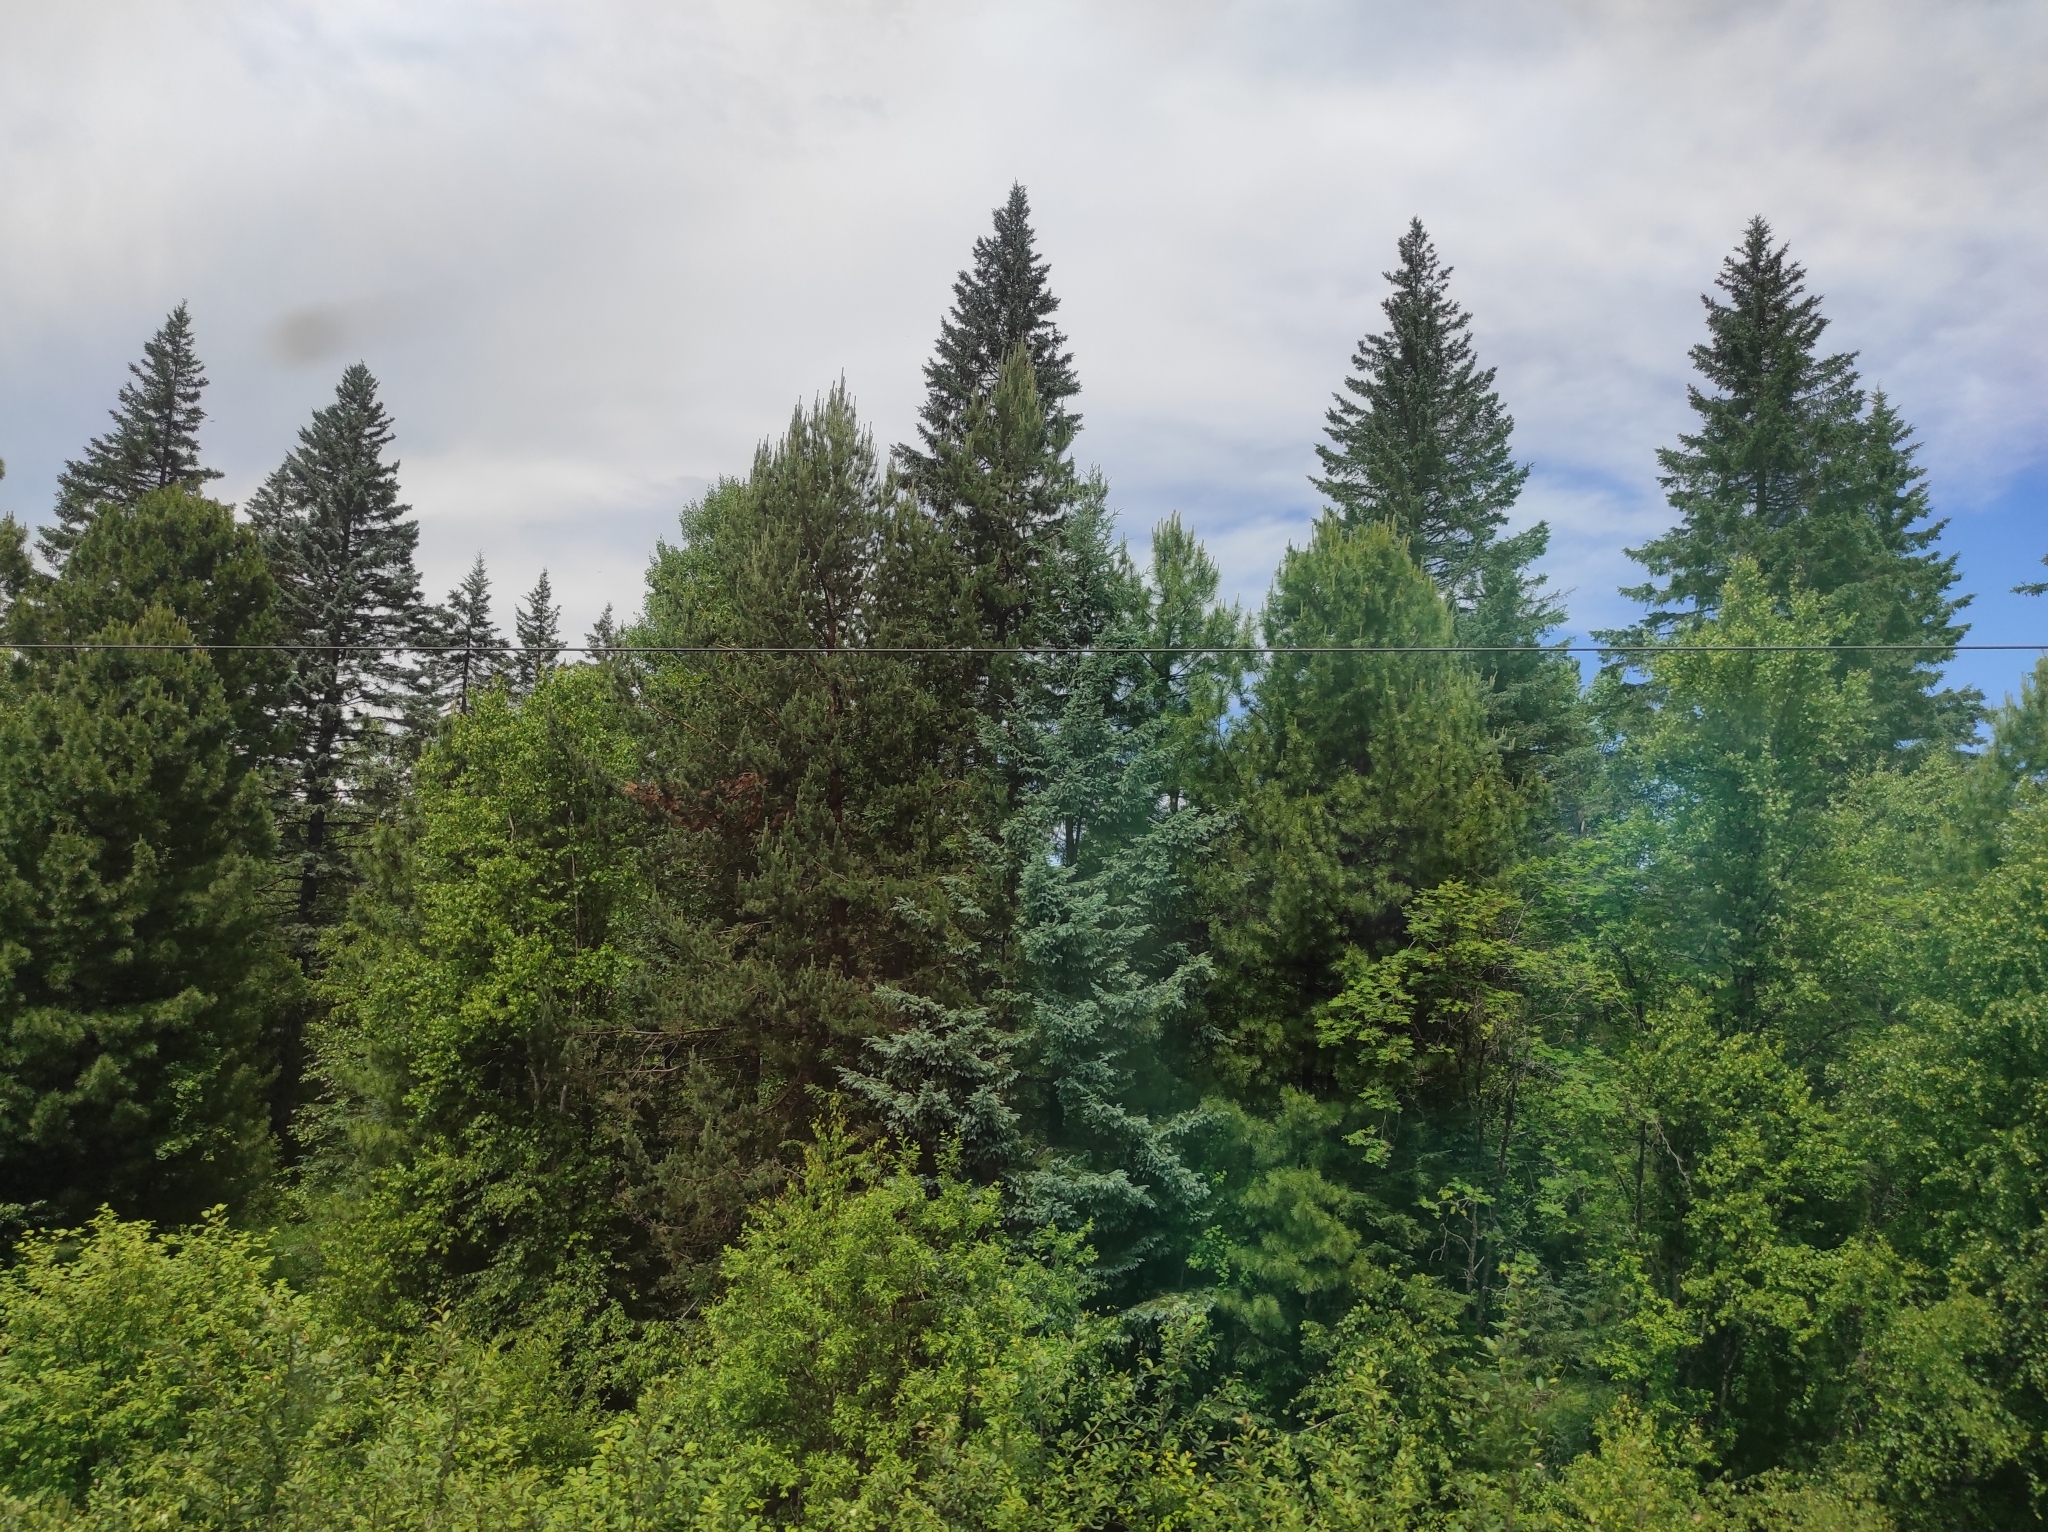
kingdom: Plantae
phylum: Tracheophyta
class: Pinopsida
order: Pinales
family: Pinaceae
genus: Picea
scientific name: Picea obovata
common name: Siberian spruce
